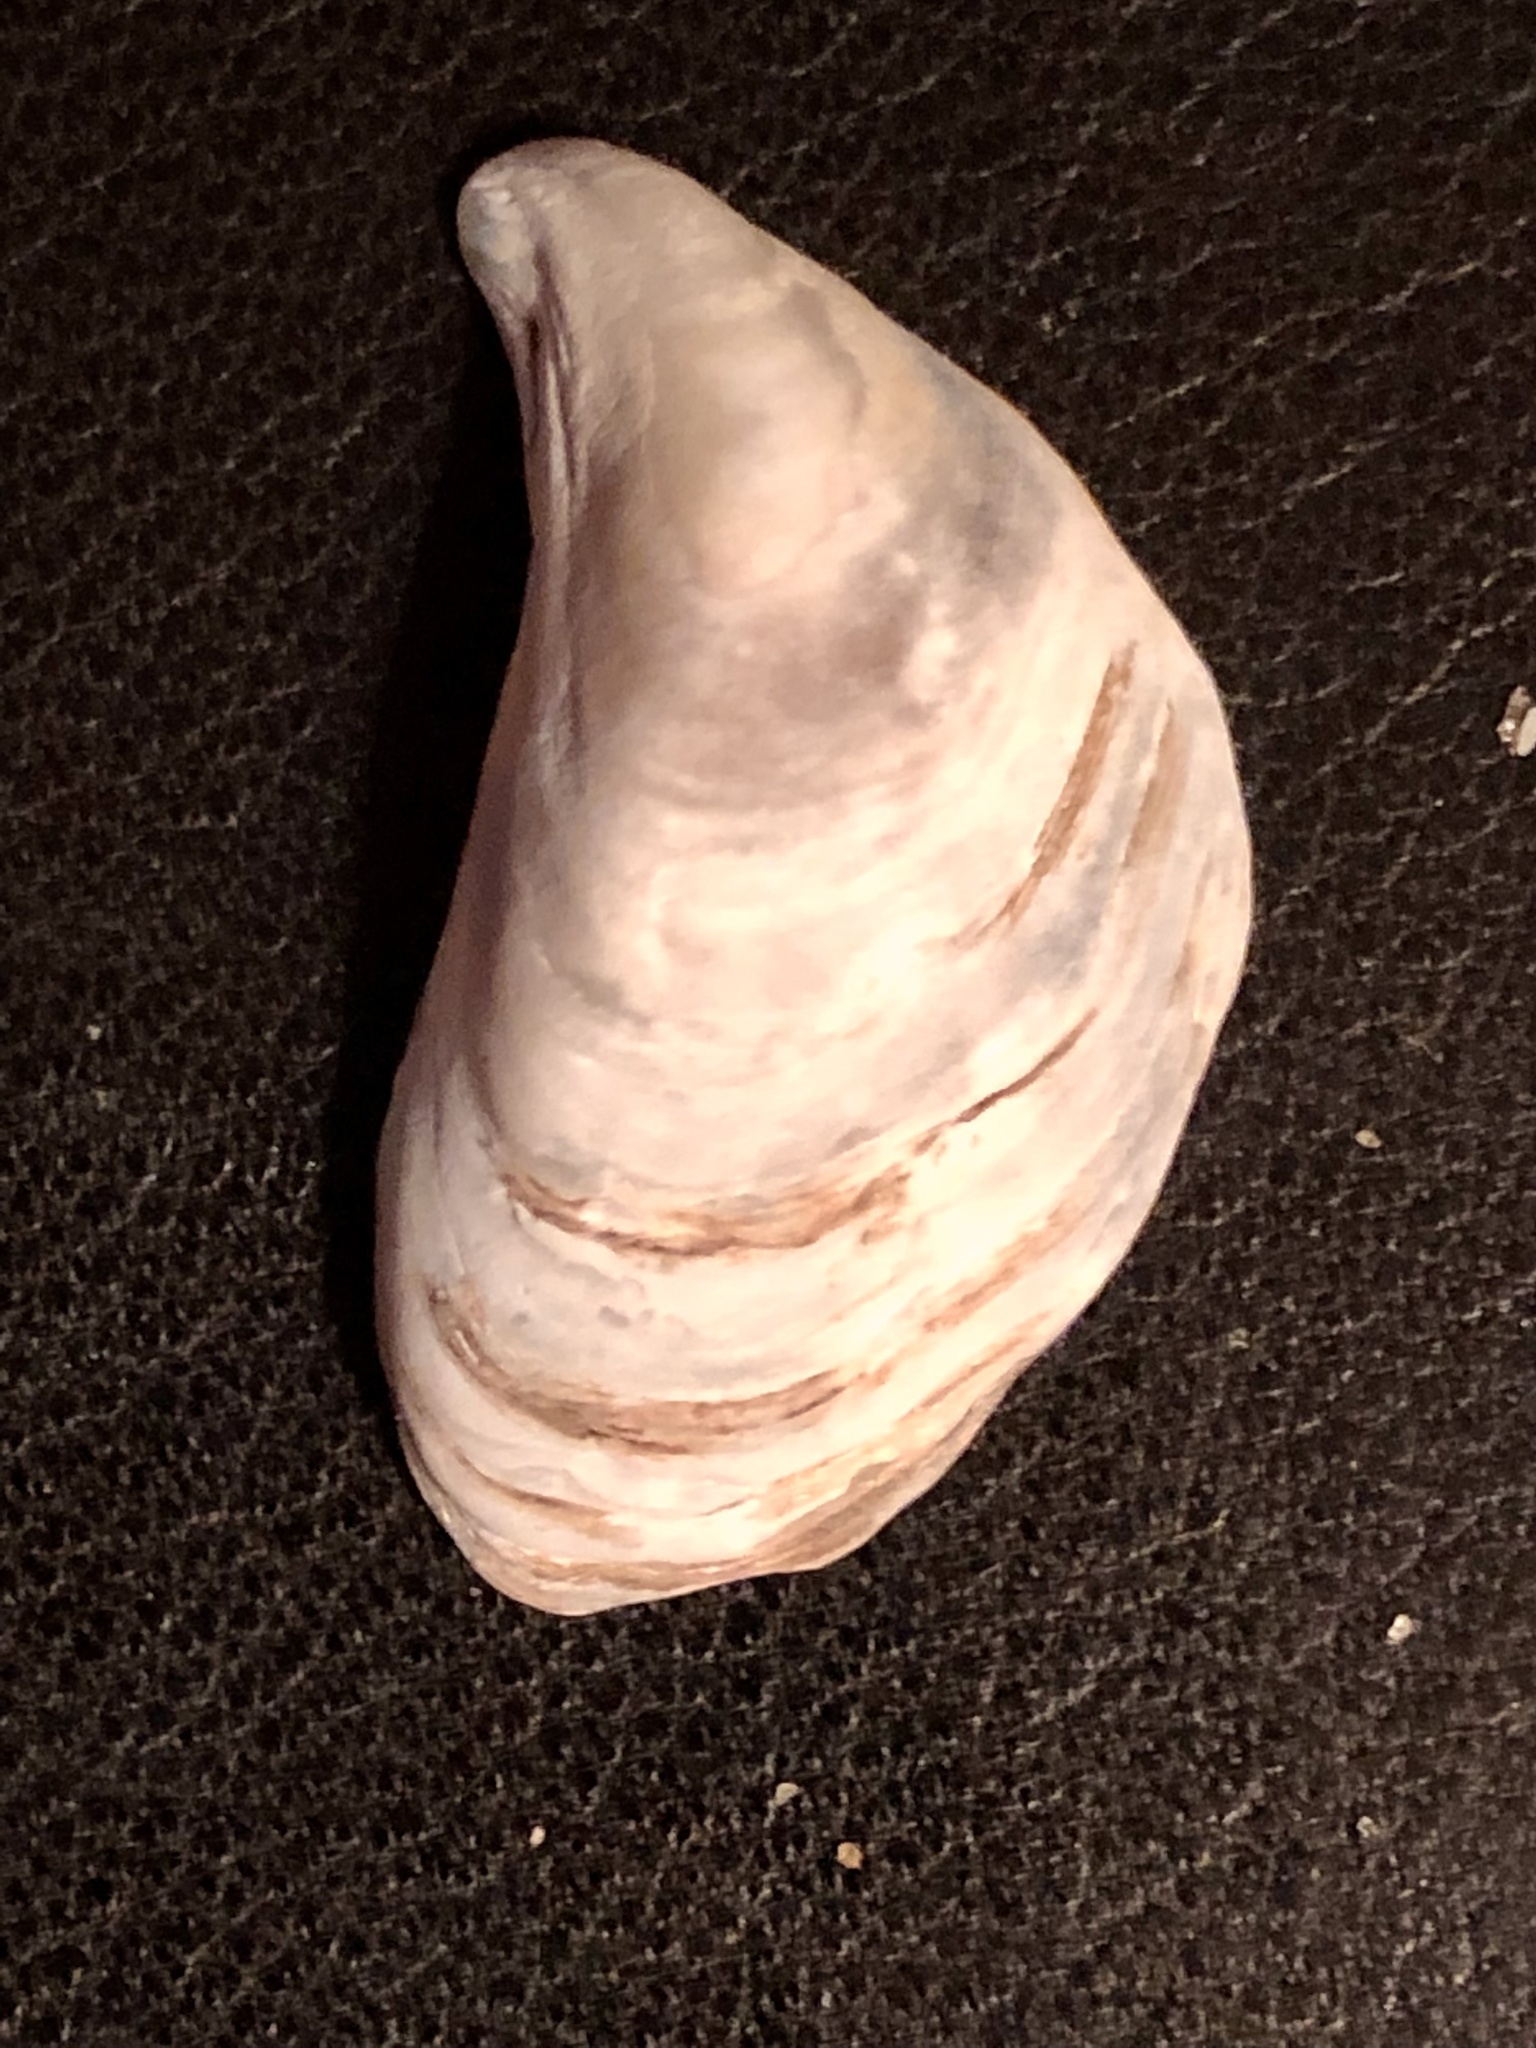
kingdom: Animalia
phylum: Mollusca
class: Bivalvia
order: Myida
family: Dreissenidae
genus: Dreissena
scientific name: Dreissena bugensis
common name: Quagga mussel
